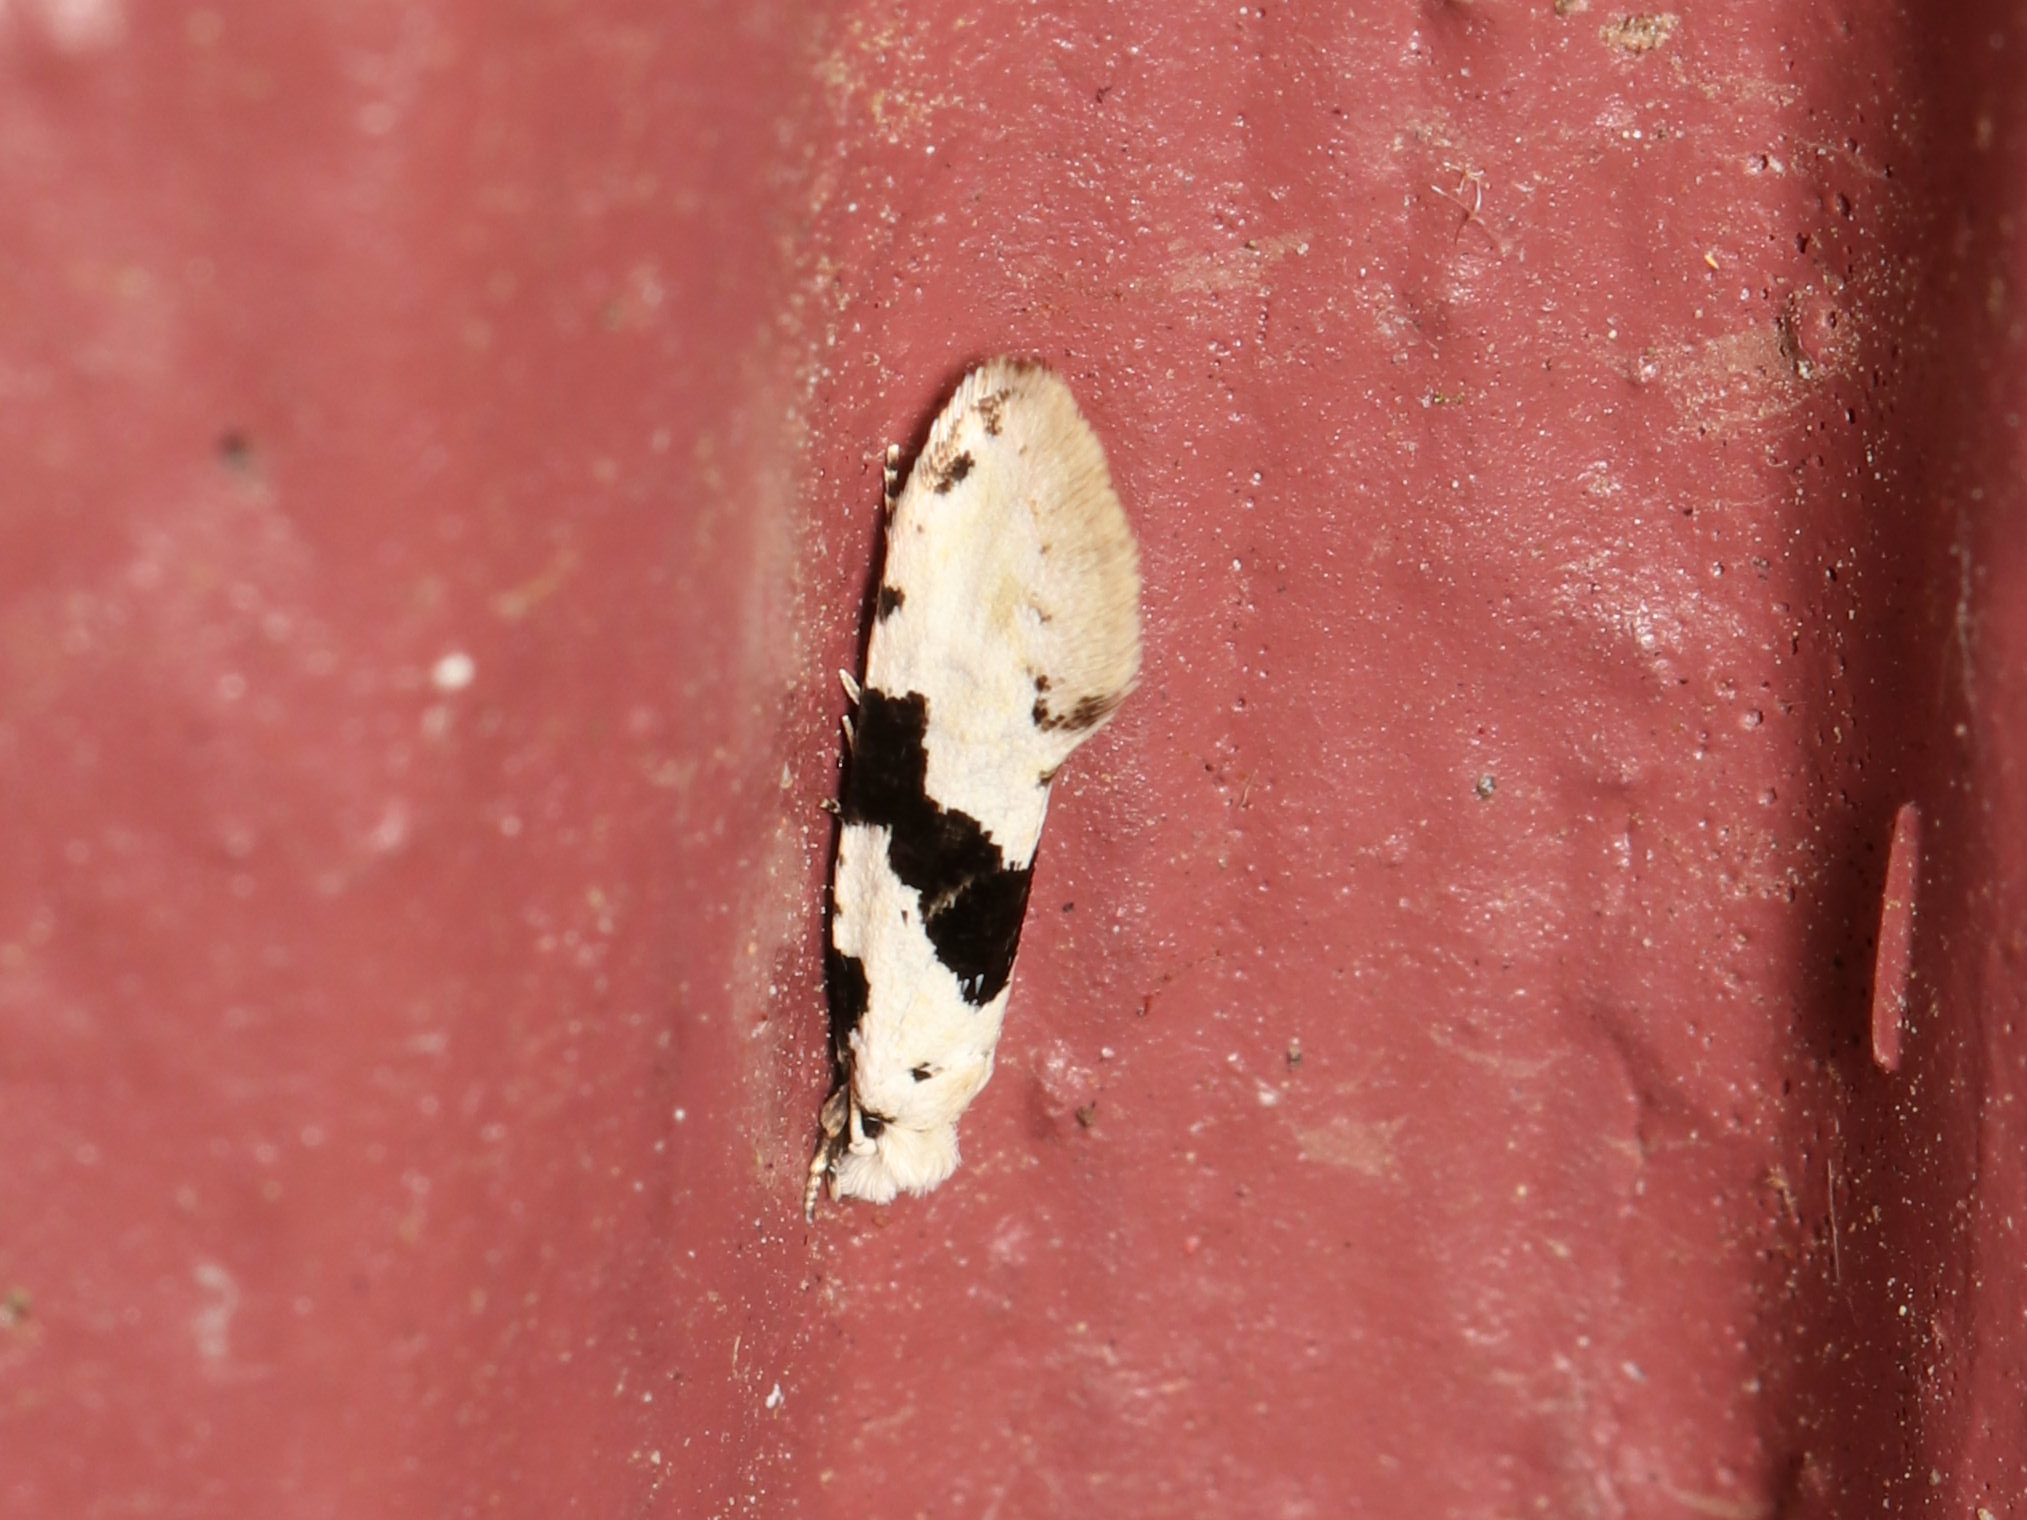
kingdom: Animalia
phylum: Arthropoda
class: Insecta
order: Lepidoptera
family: Tineidae
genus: Nemapogon
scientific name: Nemapogon clematella
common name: Barred white clothes
